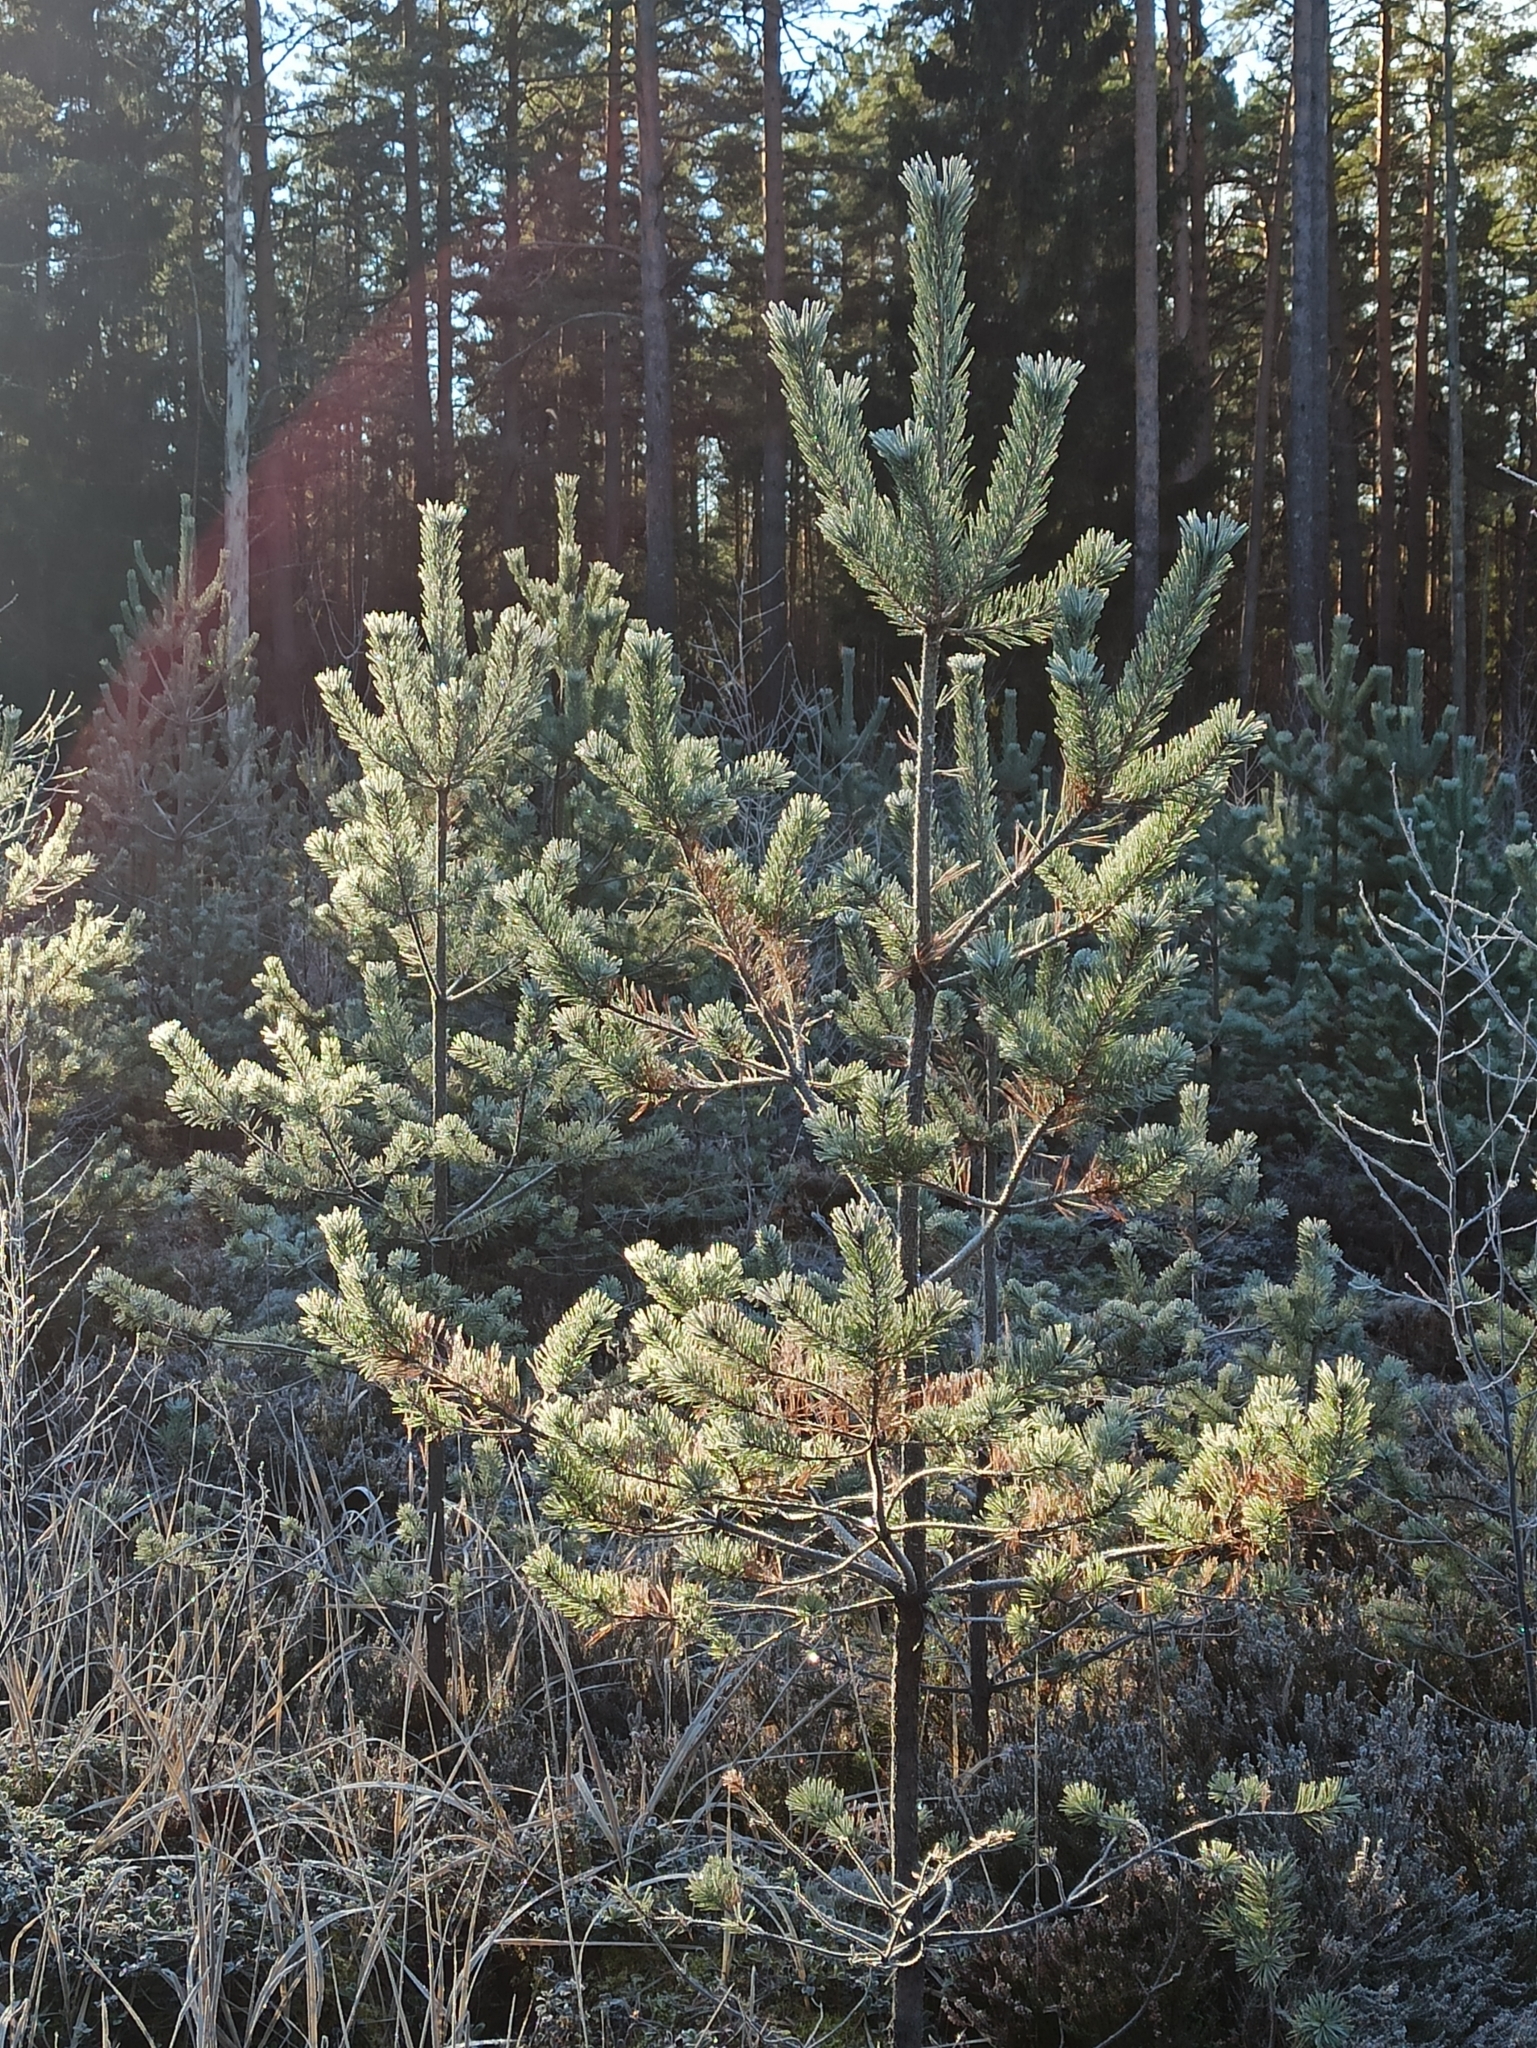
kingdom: Plantae
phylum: Tracheophyta
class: Pinopsida
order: Pinales
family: Pinaceae
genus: Pinus
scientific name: Pinus sylvestris
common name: Scots pine
